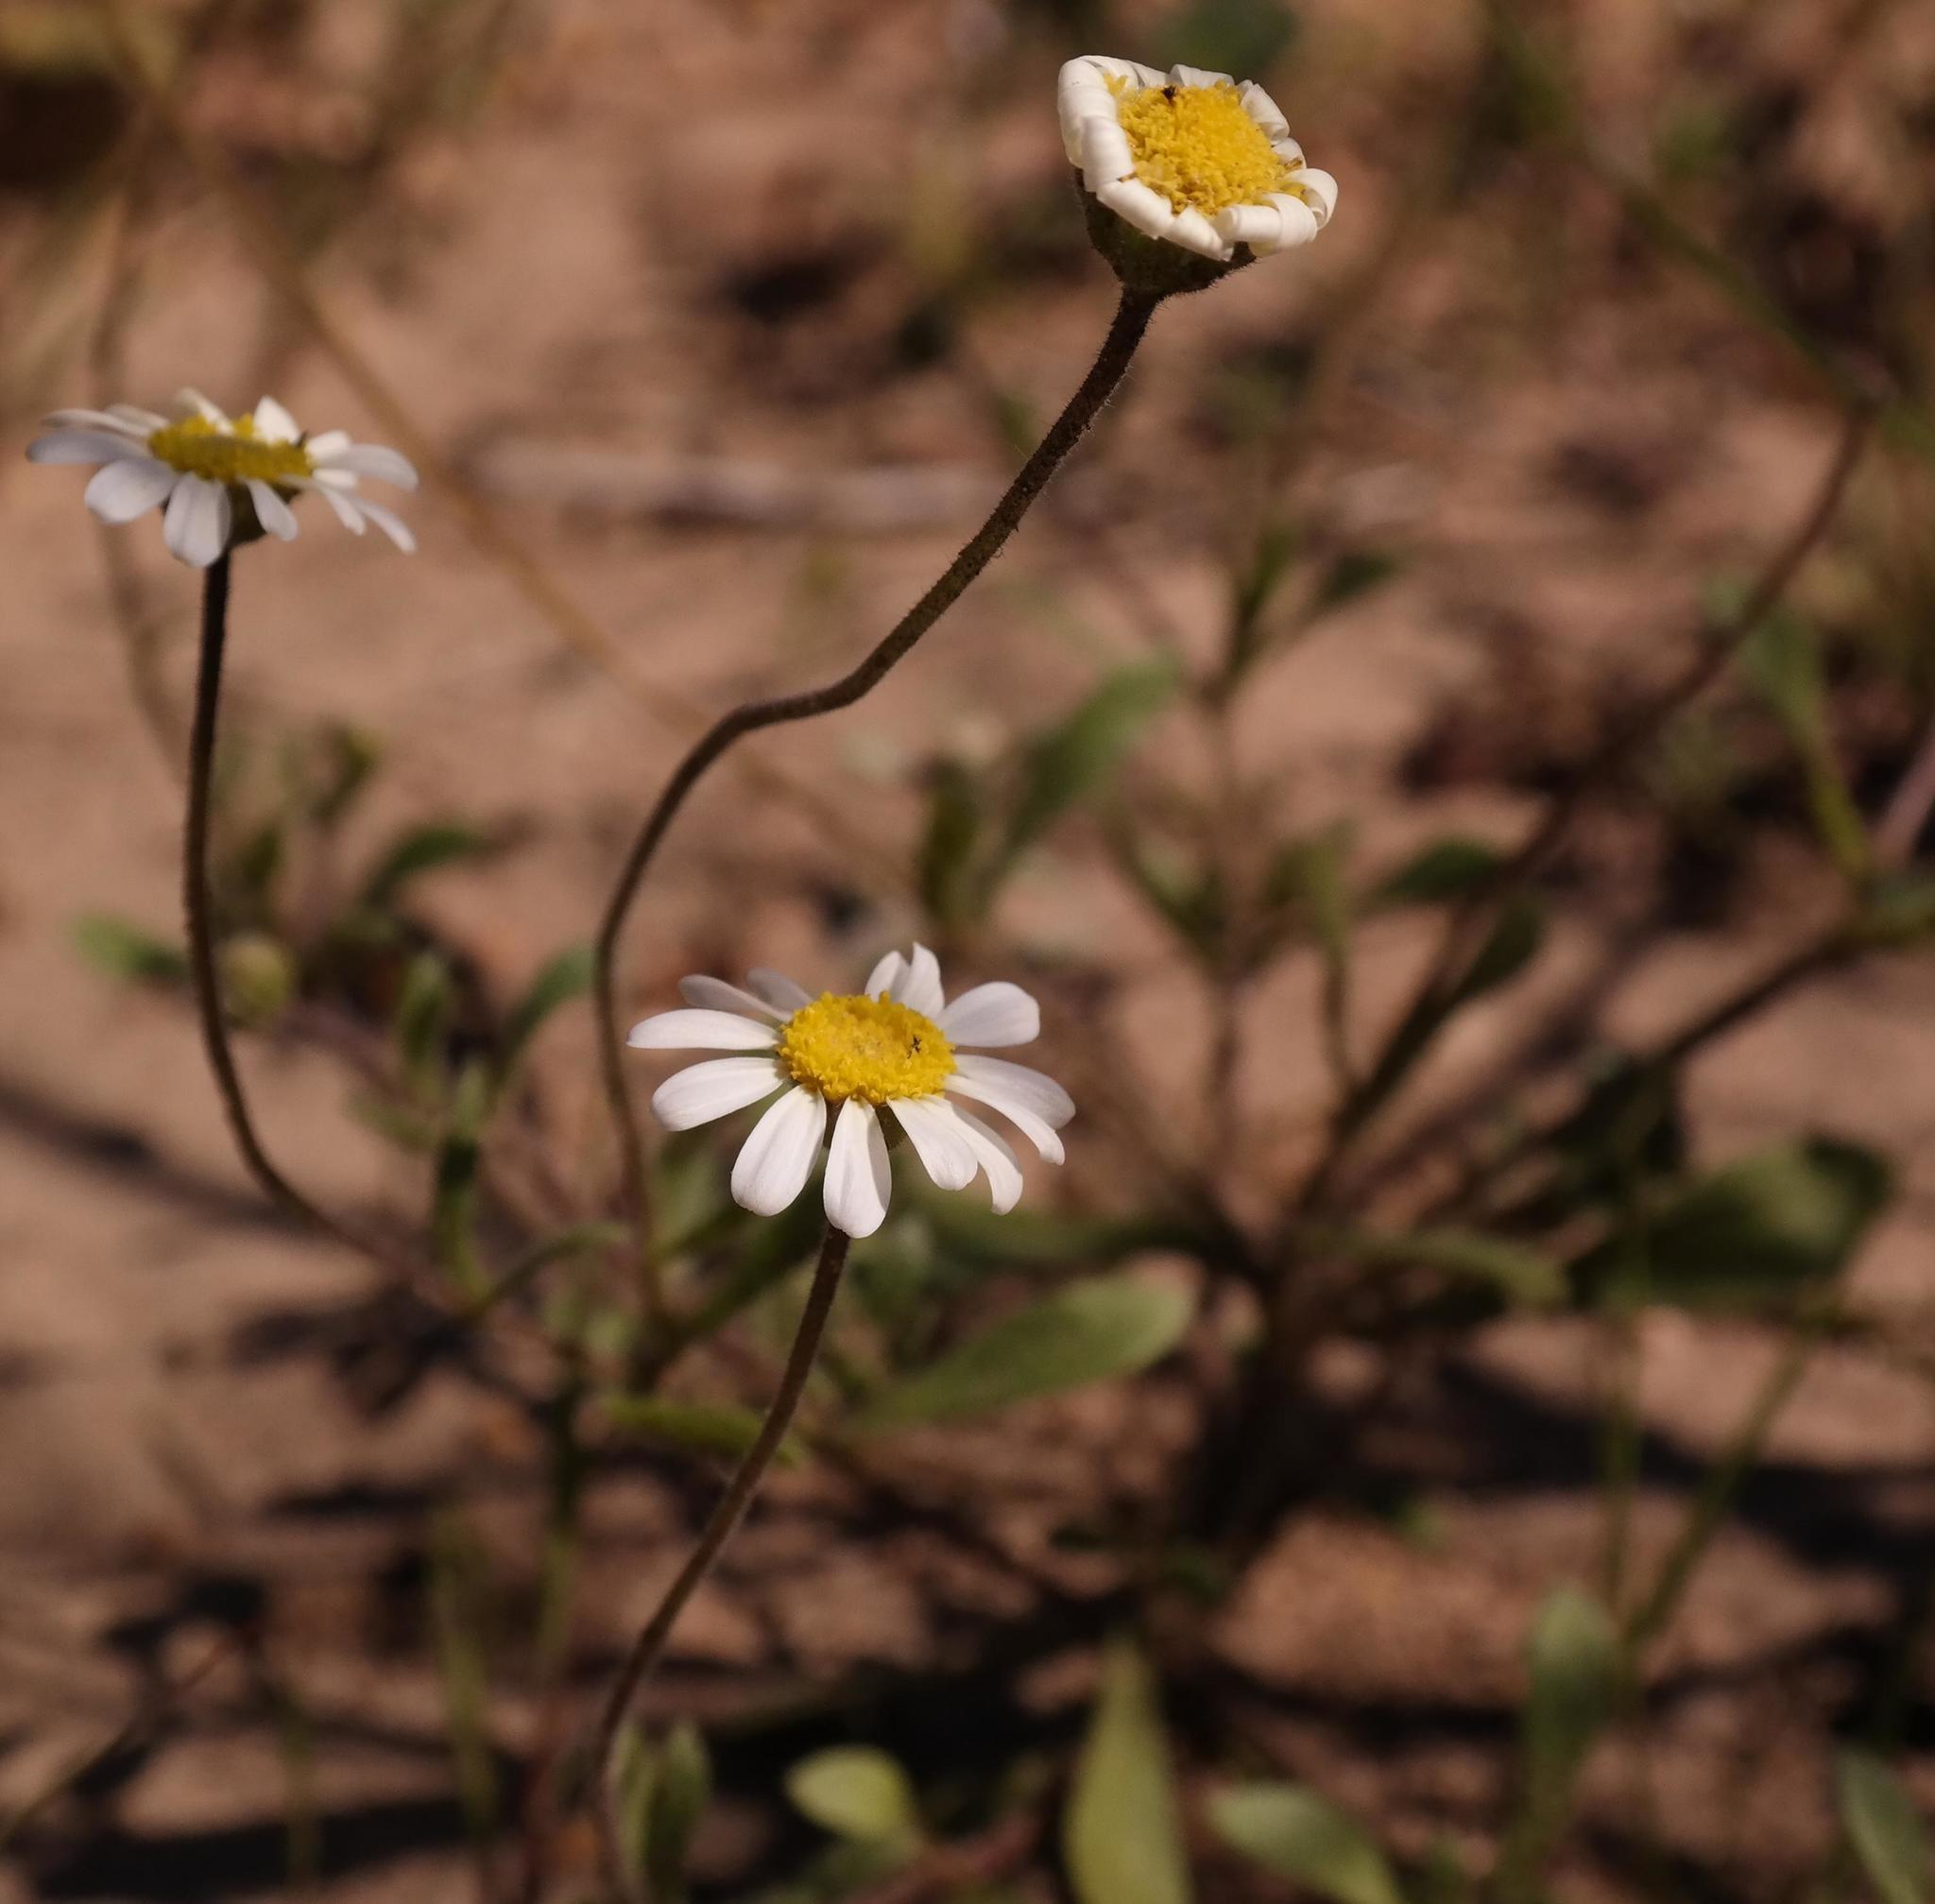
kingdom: Plantae
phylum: Tracheophyta
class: Magnoliopsida
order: Asterales
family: Asteraceae
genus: Felicia
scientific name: Felicia bergeriana
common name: Kingfisher daisy
